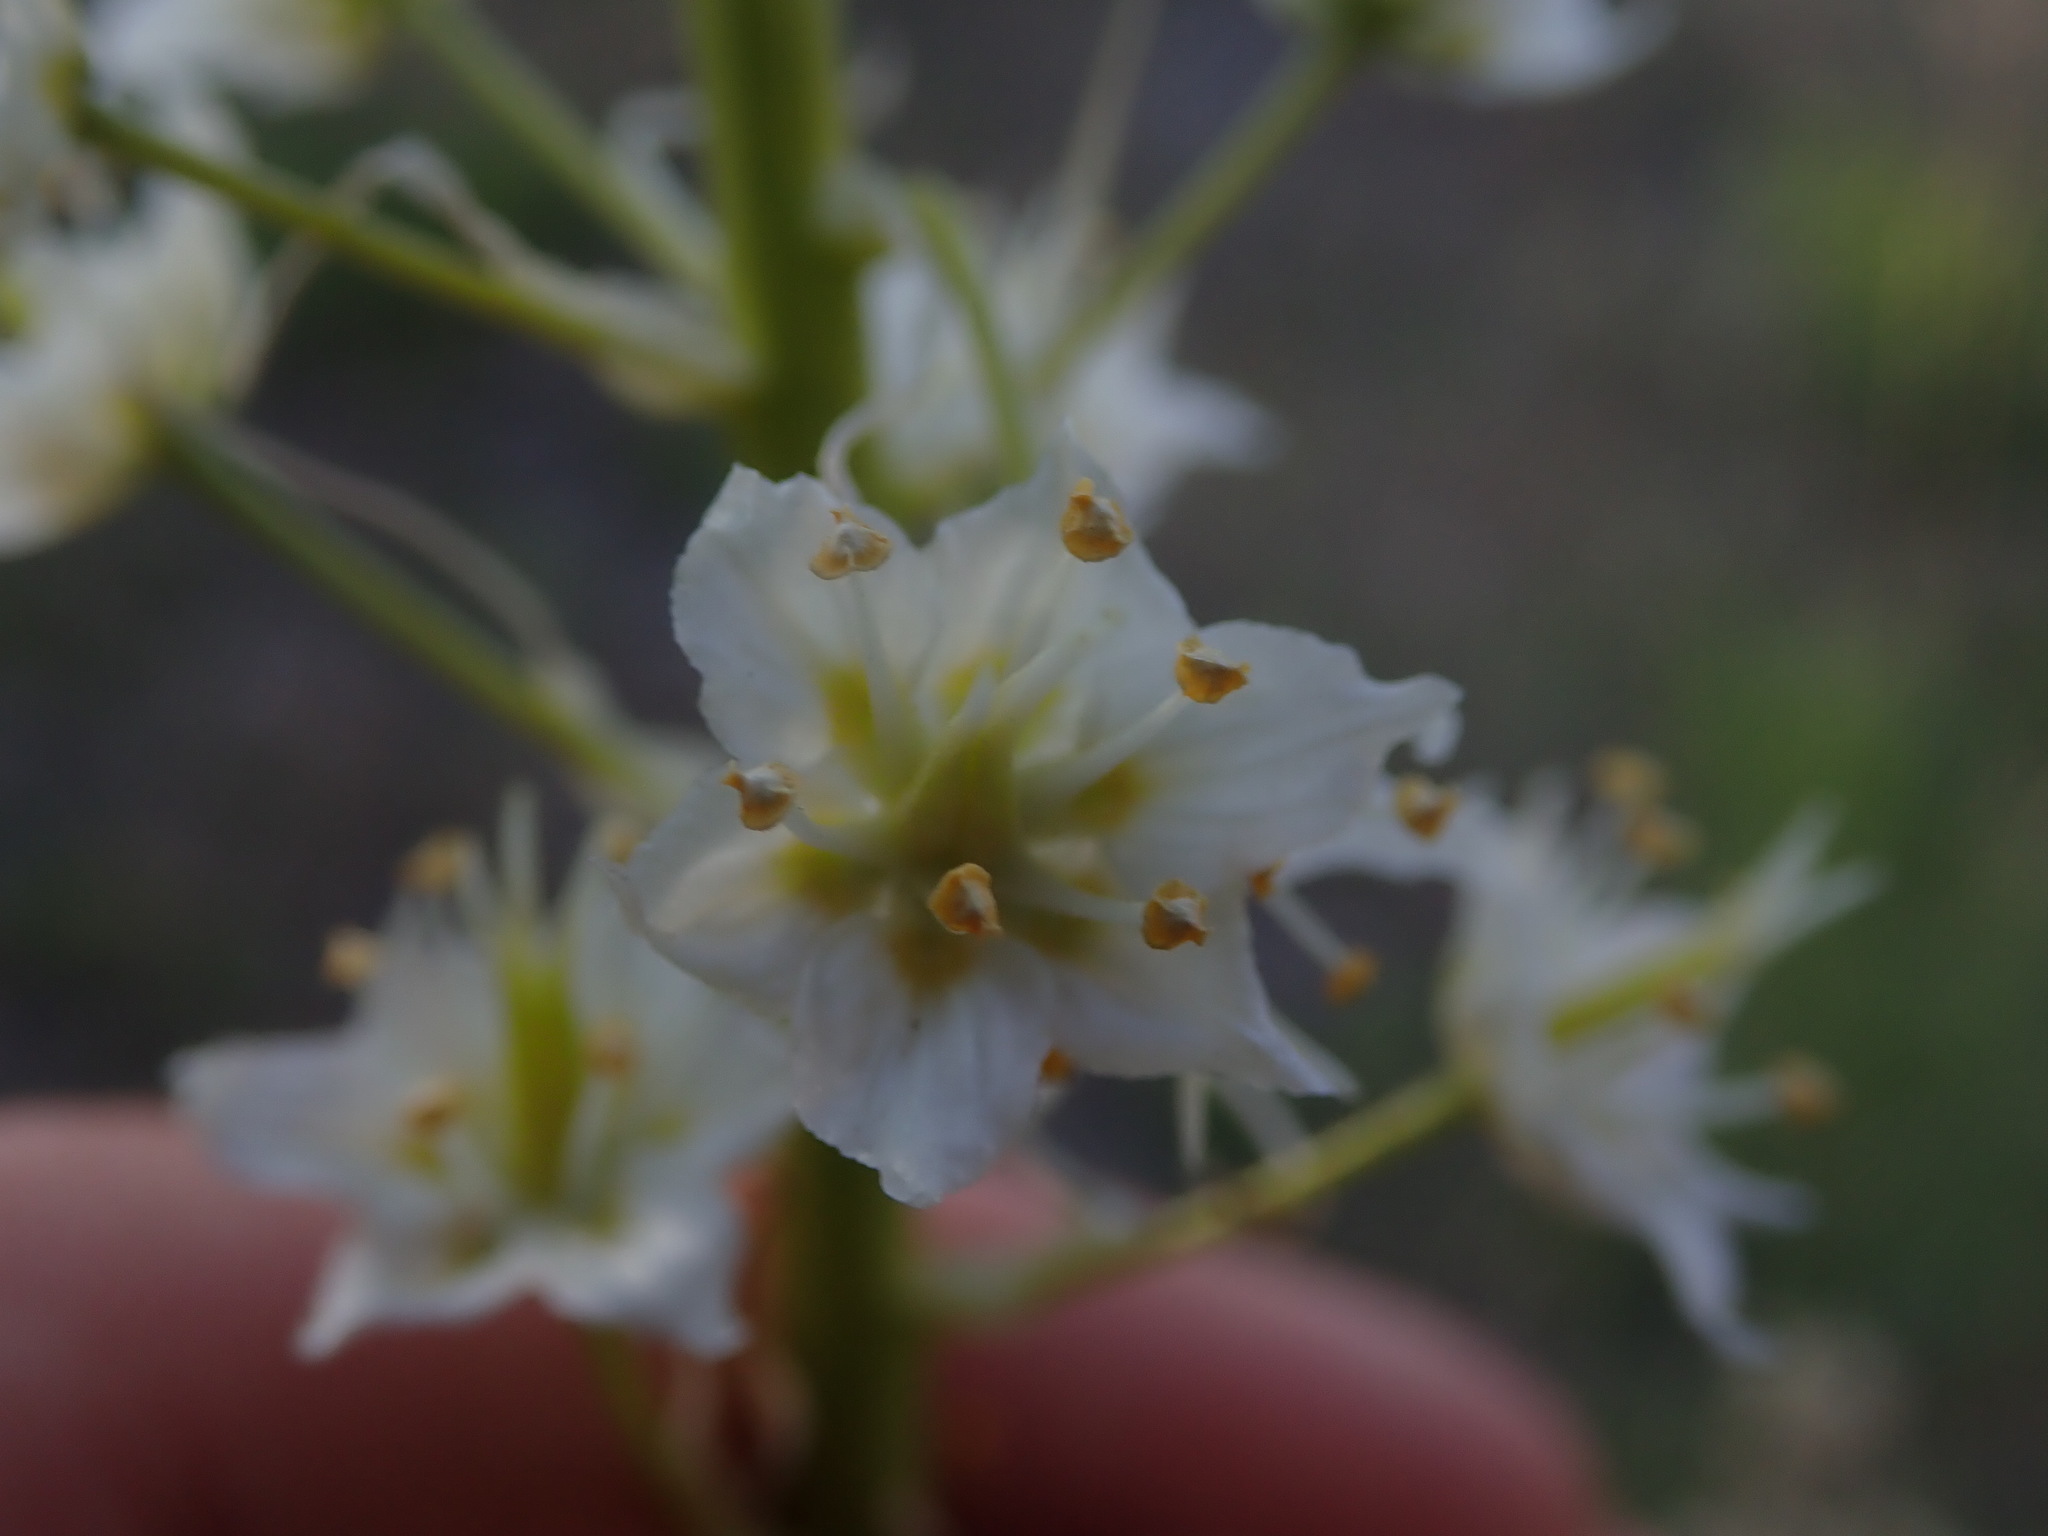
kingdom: Plantae
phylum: Tracheophyta
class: Liliopsida
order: Liliales
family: Melanthiaceae
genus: Toxicoscordion
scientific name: Toxicoscordion paniculatum
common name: Foothill death camas
